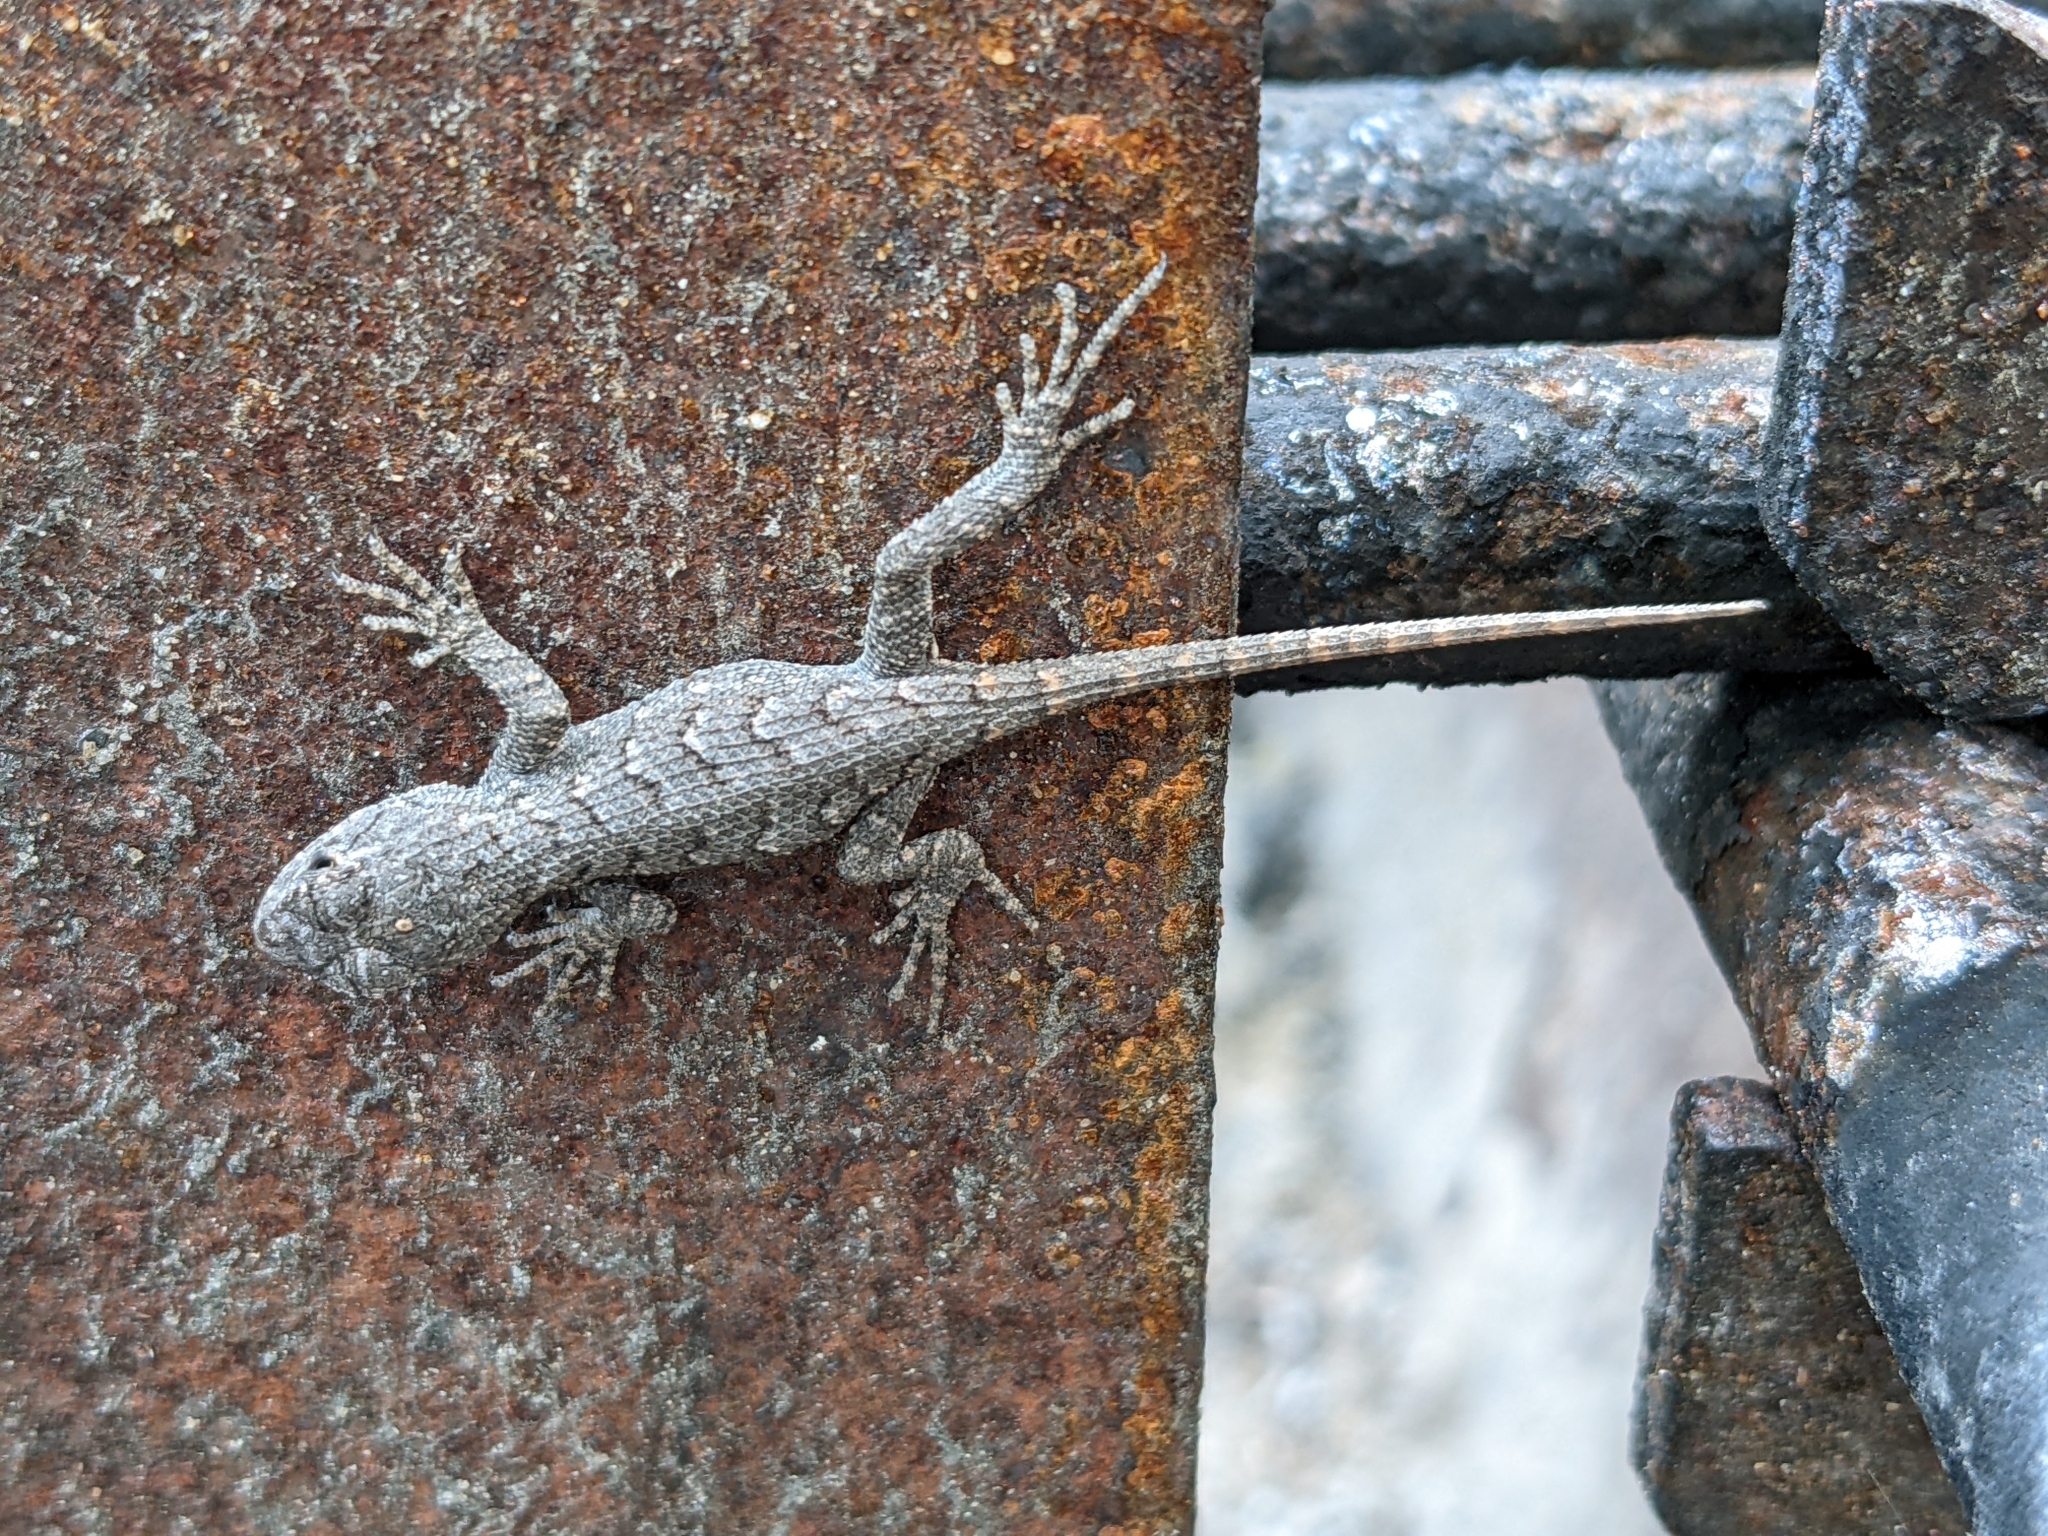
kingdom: Animalia
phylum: Chordata
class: Squamata
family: Phrynosomatidae
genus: Sceloporus
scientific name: Sceloporus undulatus
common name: Eastern fence lizard
